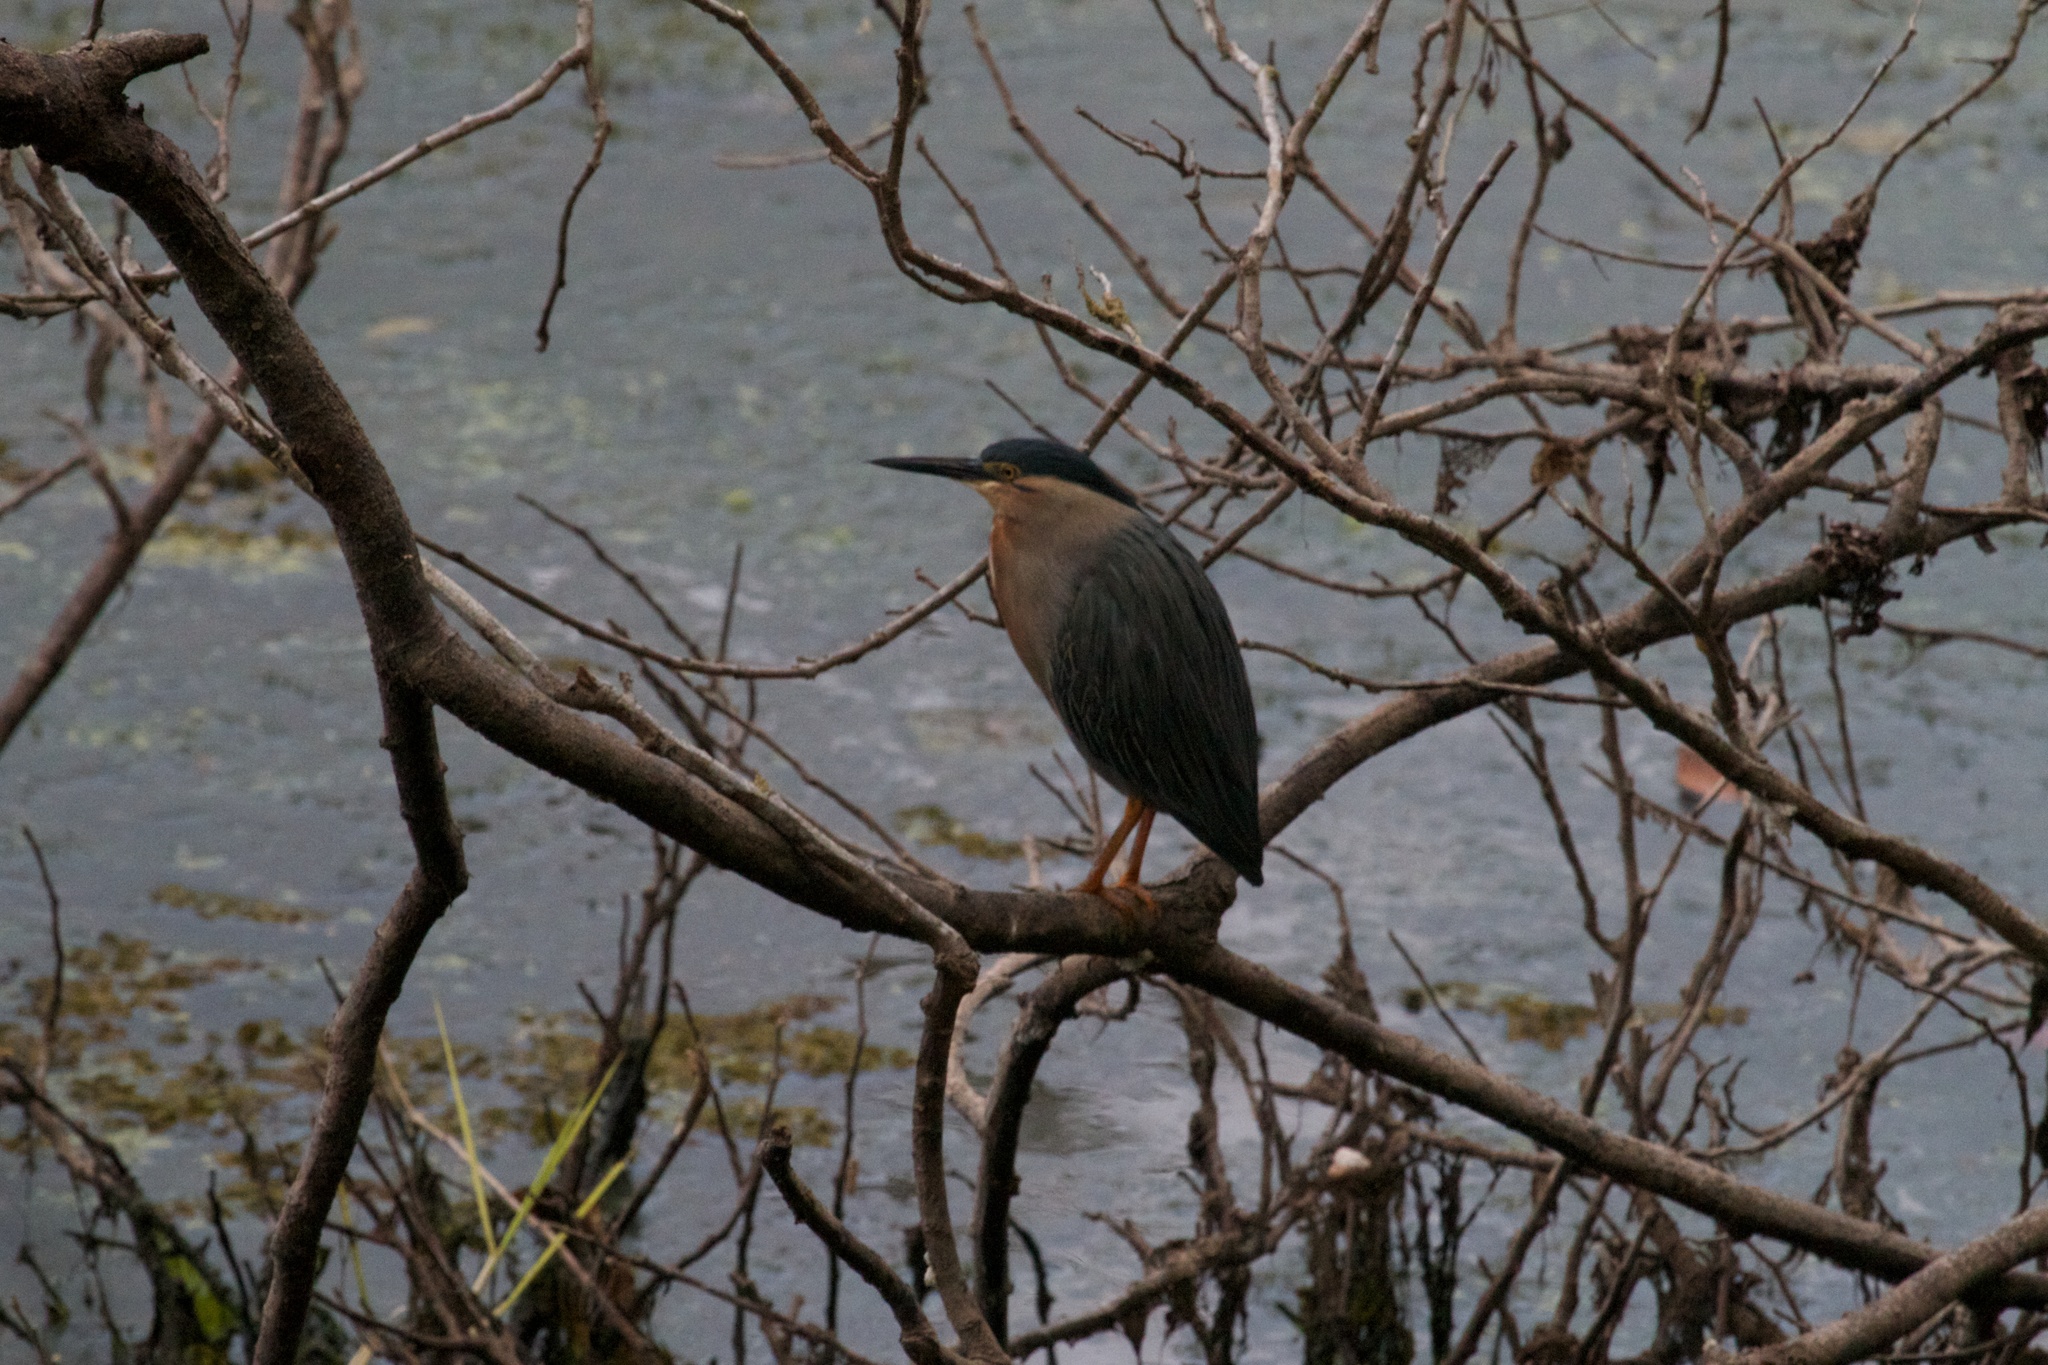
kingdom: Animalia
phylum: Chordata
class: Aves
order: Pelecaniformes
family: Ardeidae
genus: Butorides
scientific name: Butorides striata
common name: Striated heron
